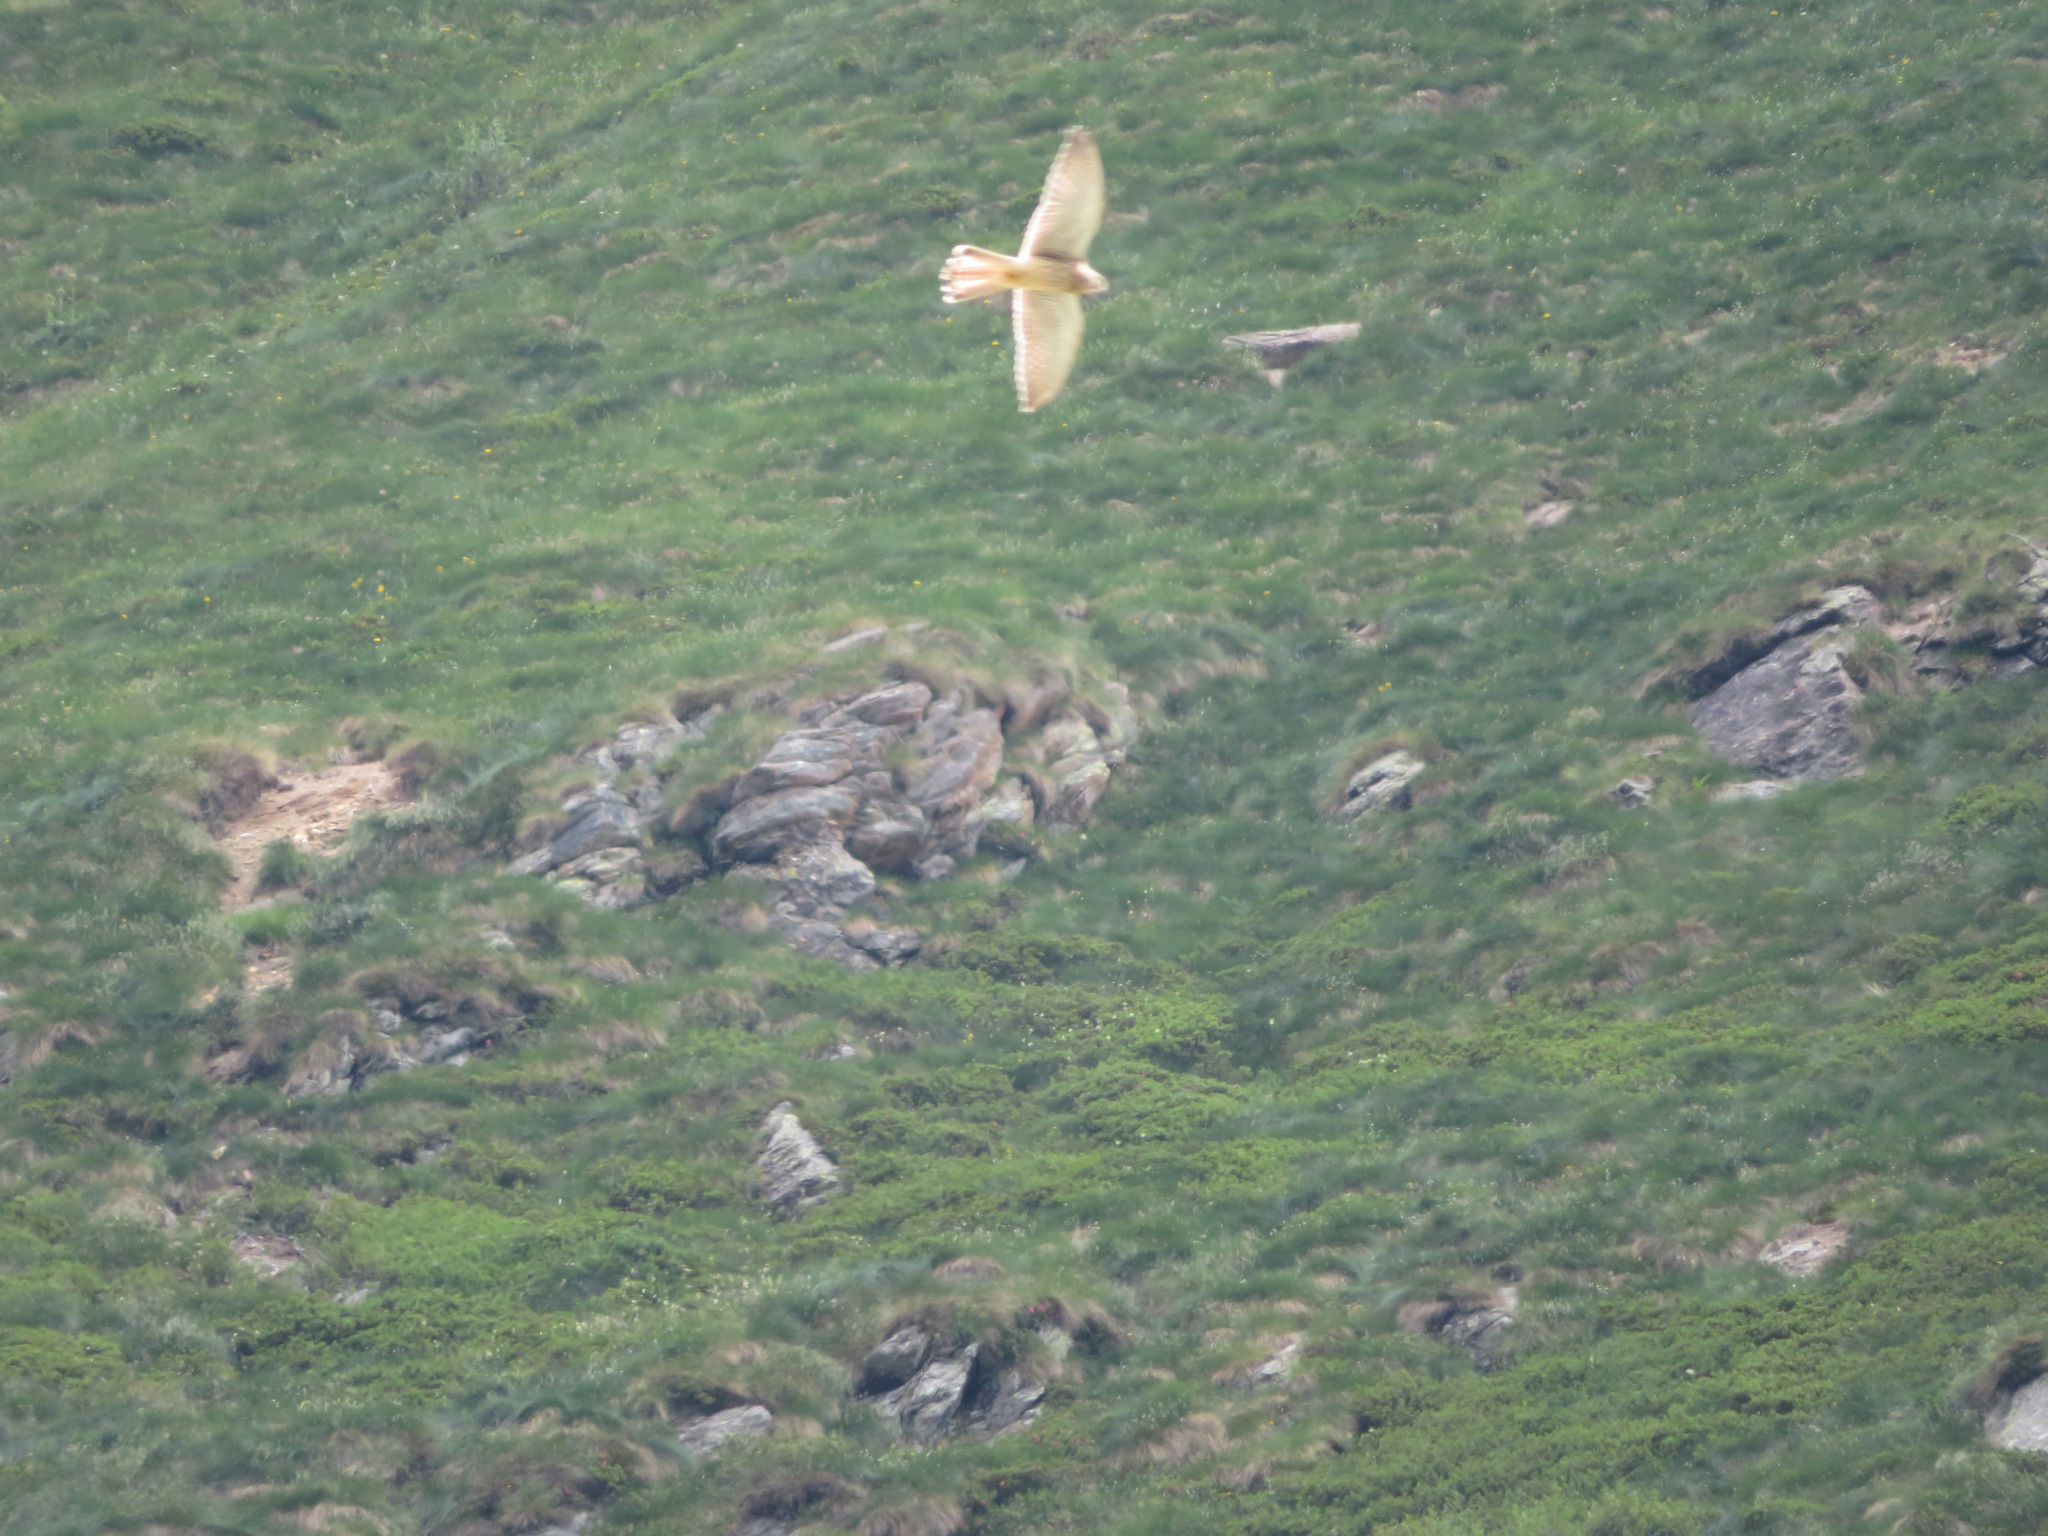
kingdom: Animalia
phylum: Chordata
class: Aves
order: Falconiformes
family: Falconidae
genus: Falco
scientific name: Falco tinnunculus
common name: Common kestrel
